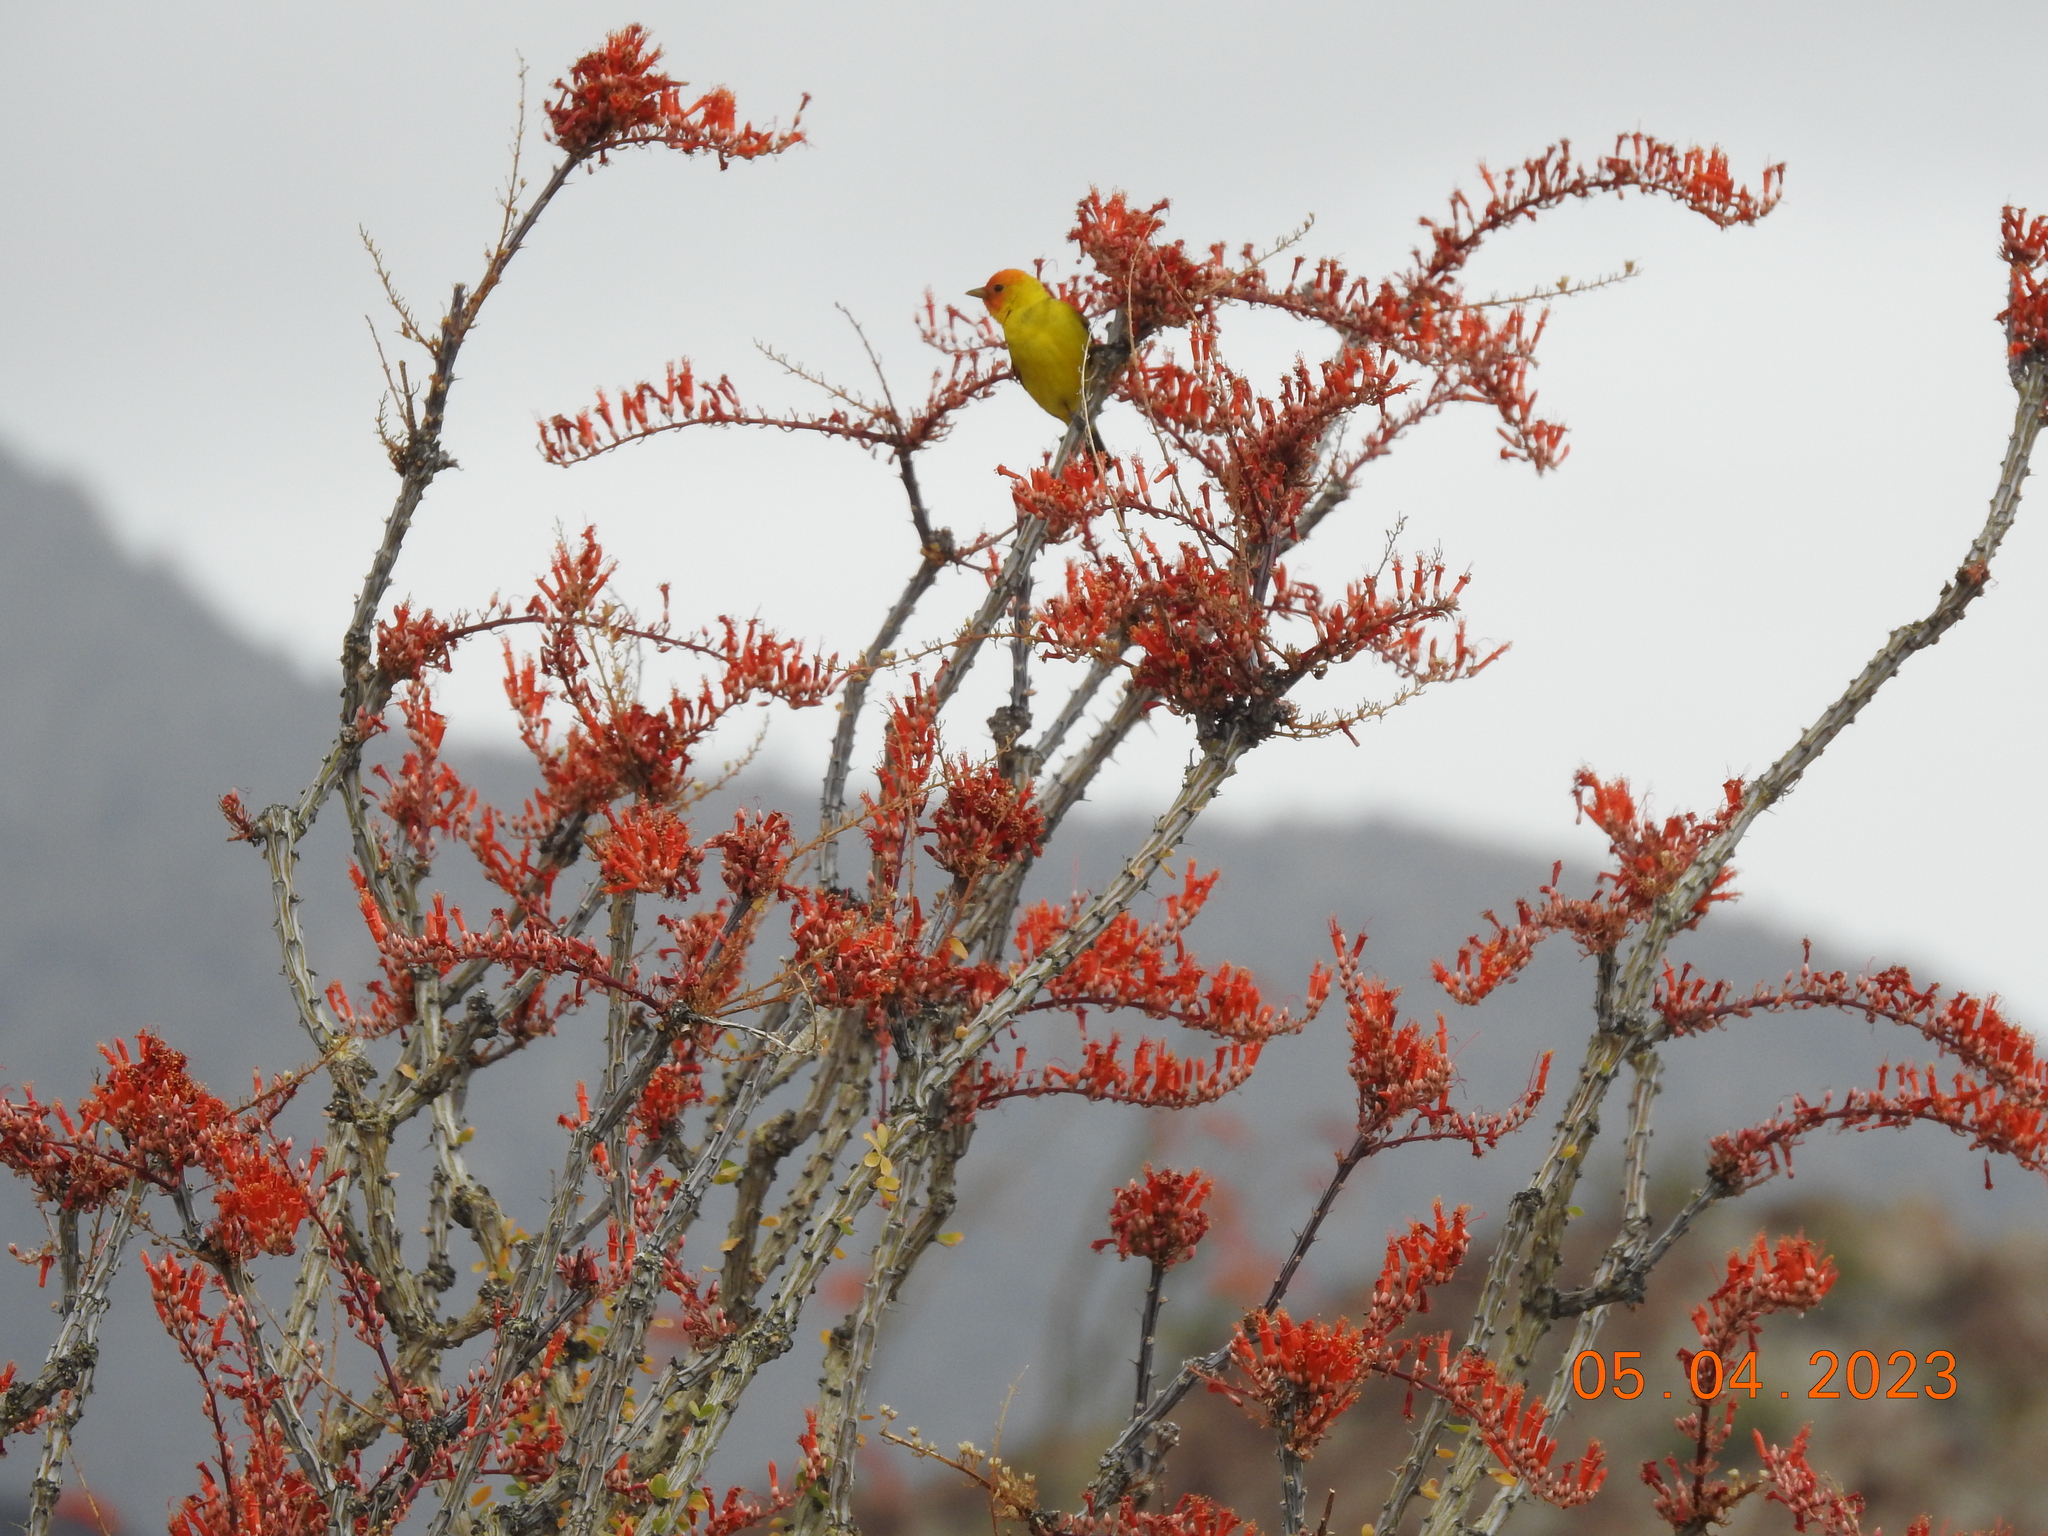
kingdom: Animalia
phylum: Chordata
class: Aves
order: Passeriformes
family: Cardinalidae
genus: Piranga
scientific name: Piranga ludoviciana
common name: Western tanager
